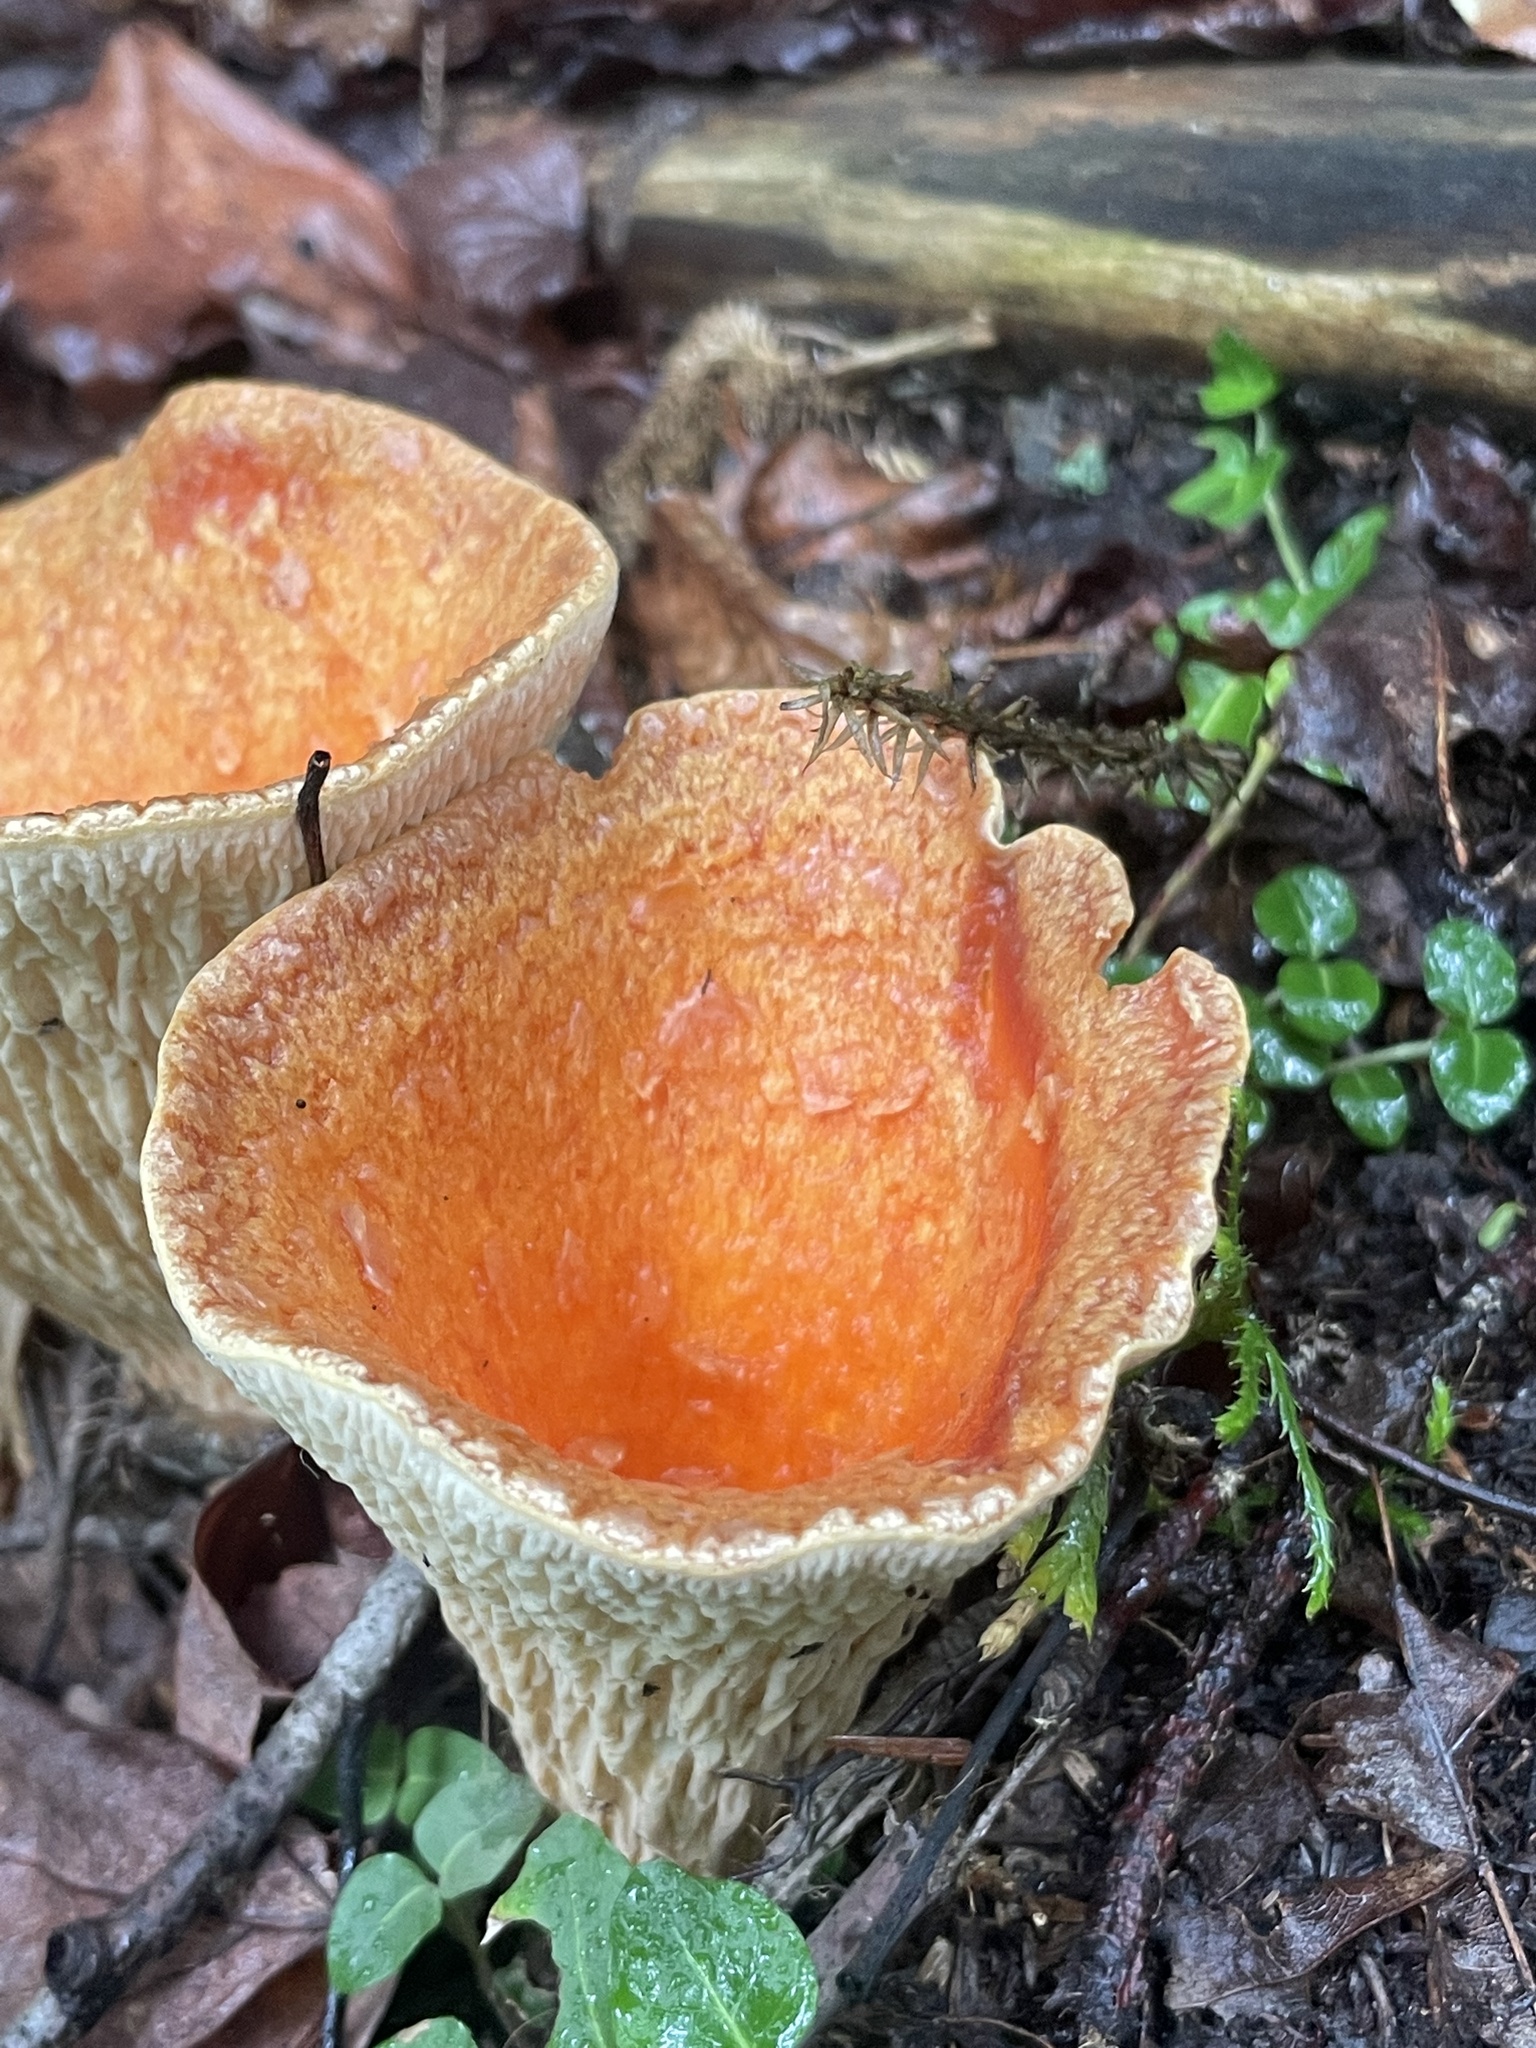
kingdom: Fungi
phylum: Basidiomycota
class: Agaricomycetes
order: Gomphales
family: Gomphaceae
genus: Turbinellus
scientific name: Turbinellus floccosus
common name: Scaly chanterelle
